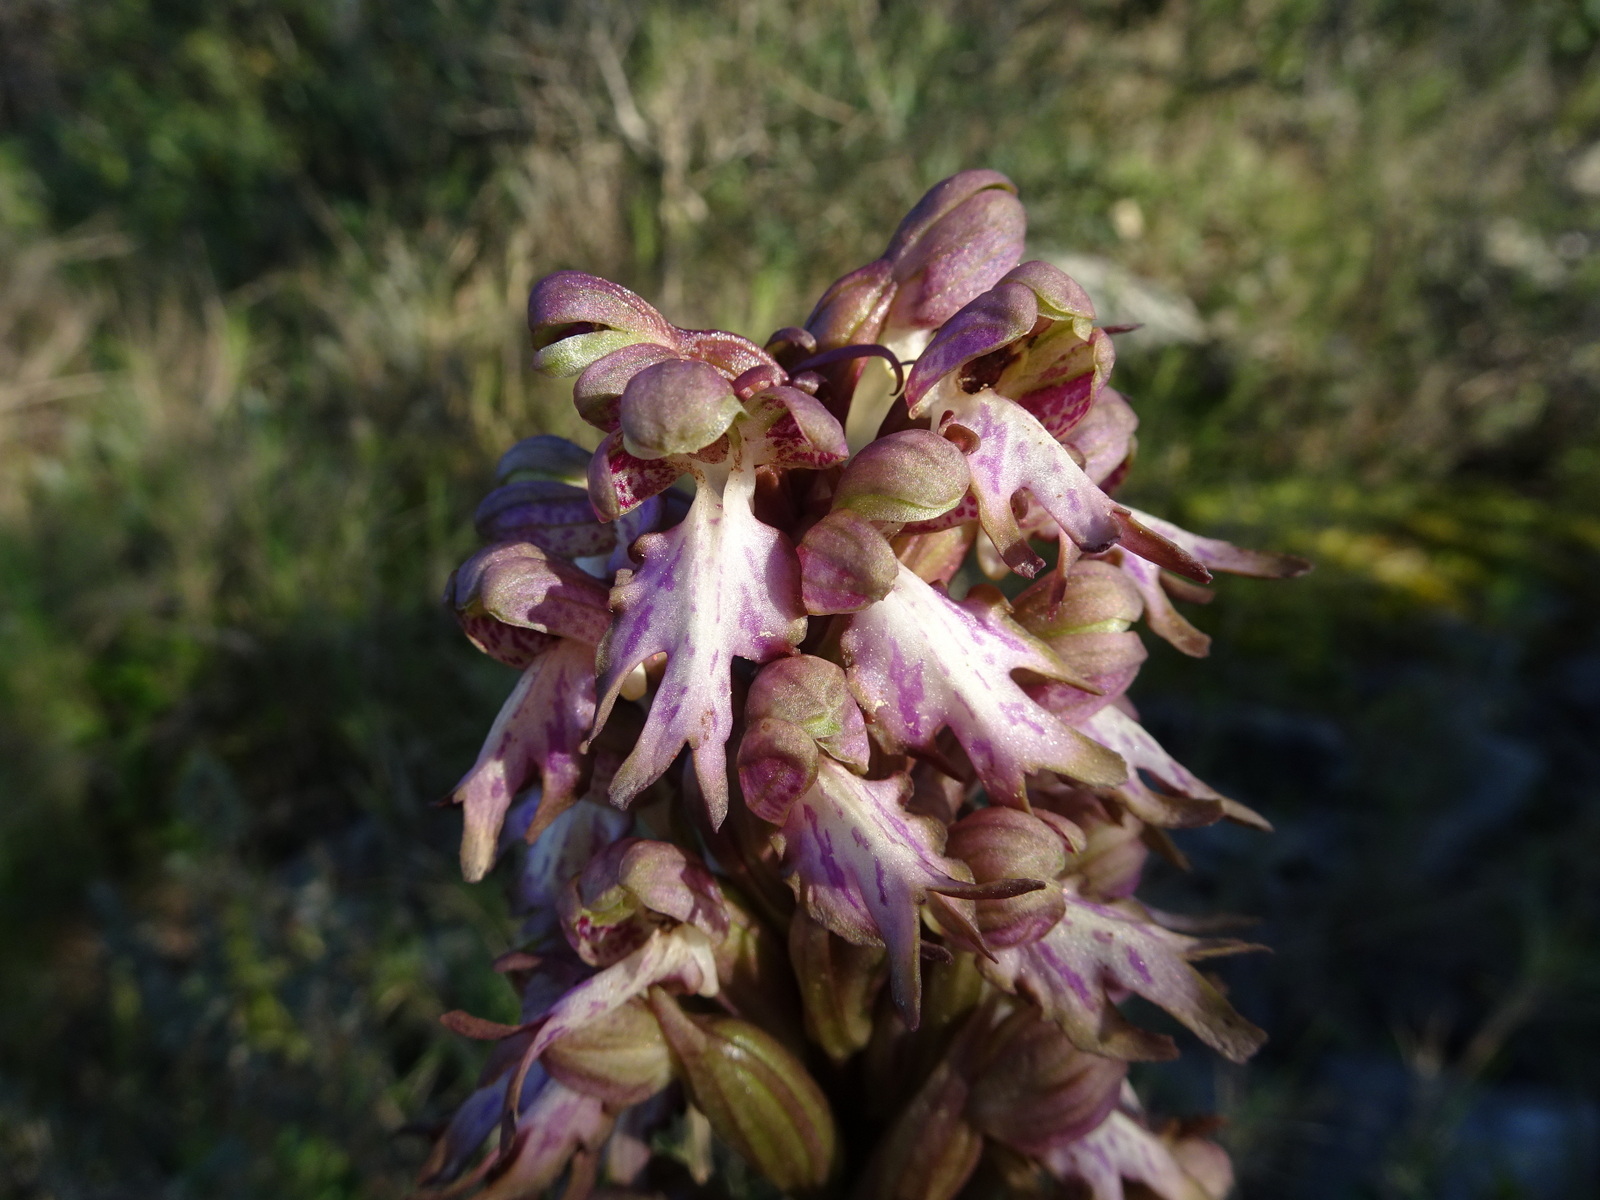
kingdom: Plantae
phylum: Tracheophyta
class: Liliopsida
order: Asparagales
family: Orchidaceae
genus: Himantoglossum
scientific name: Himantoglossum robertianum
